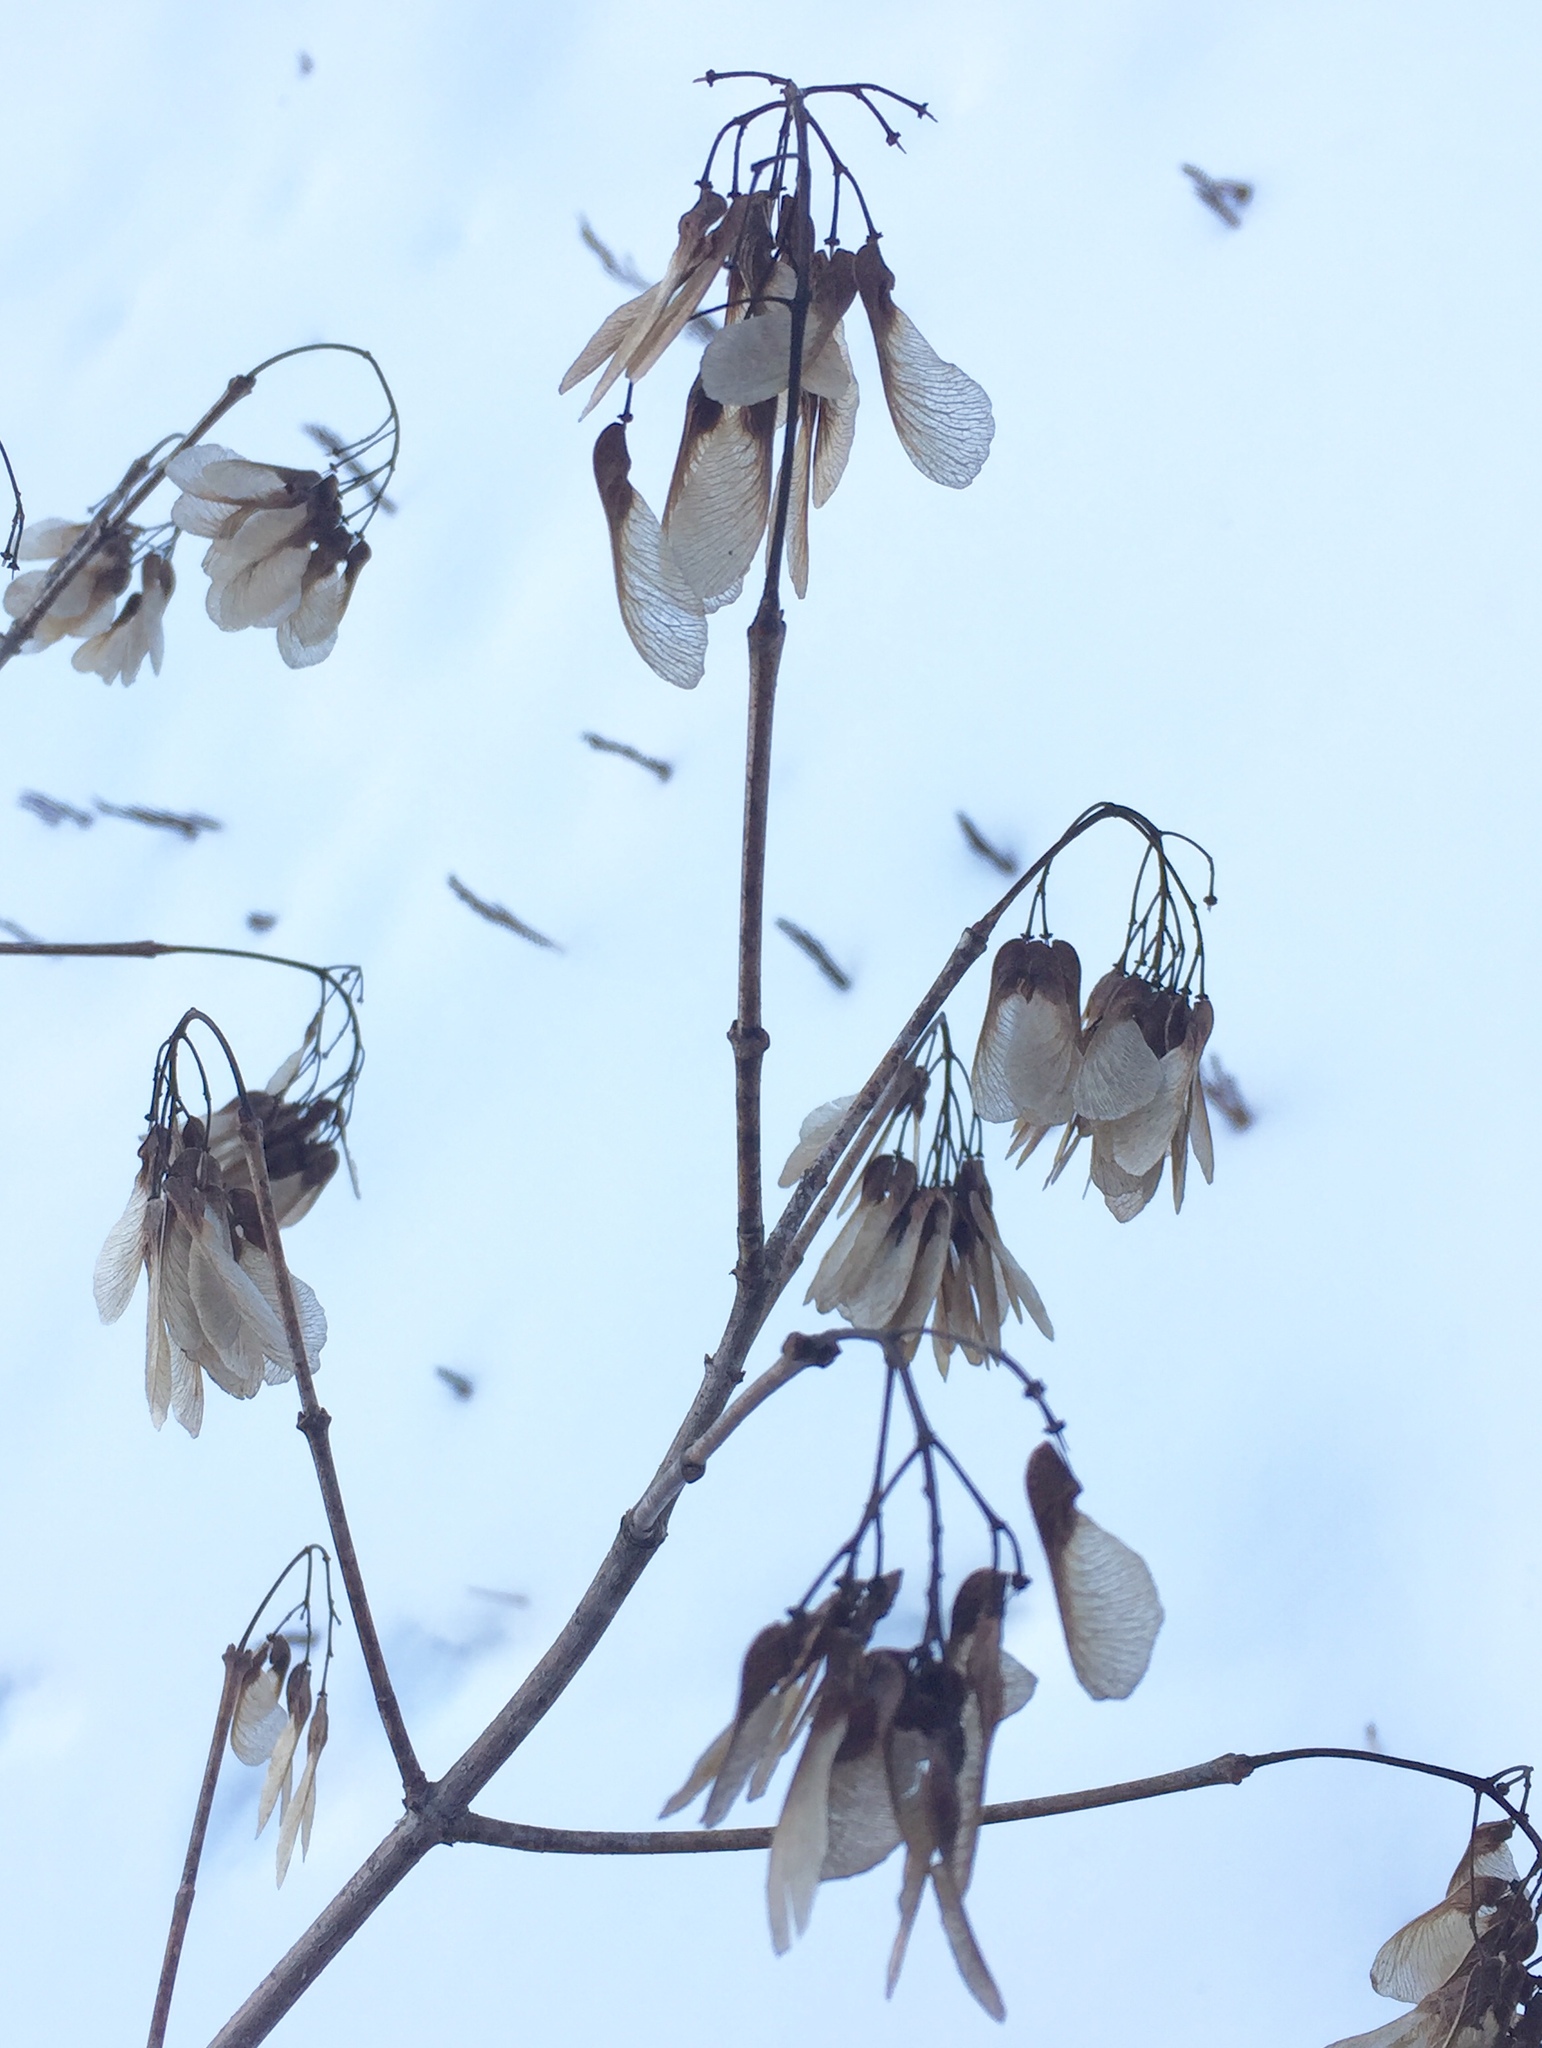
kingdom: Plantae
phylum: Tracheophyta
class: Magnoliopsida
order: Sapindales
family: Sapindaceae
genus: Acer
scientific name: Acer tataricum
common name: Tartar maple
